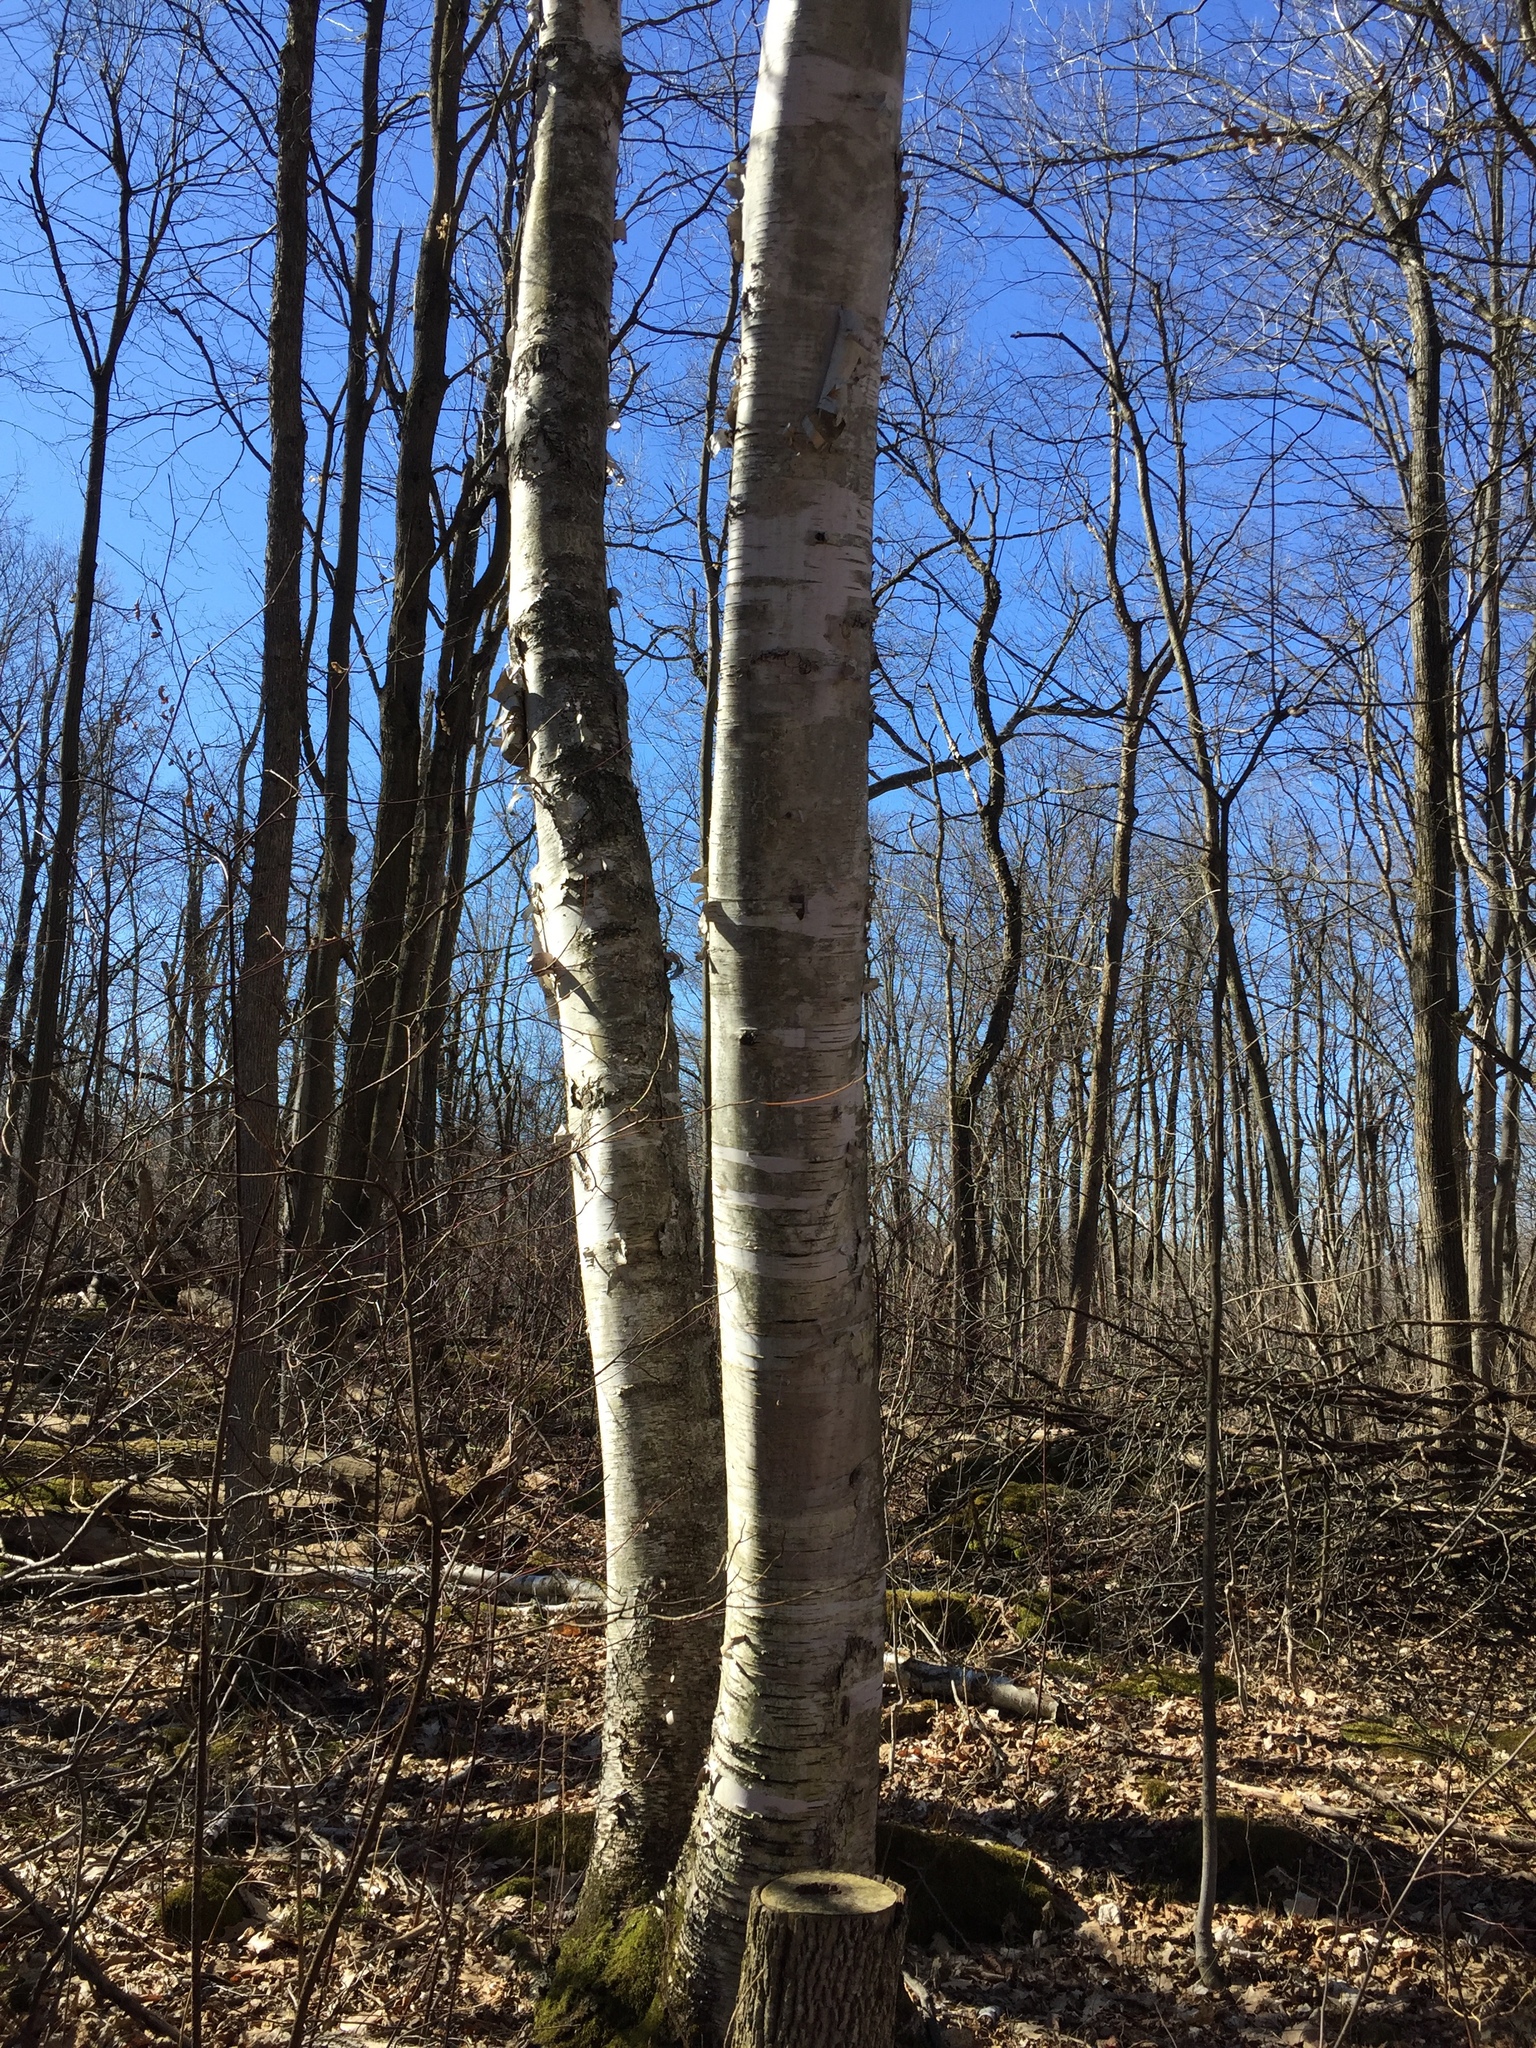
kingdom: Plantae
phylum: Tracheophyta
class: Magnoliopsida
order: Fagales
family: Betulaceae
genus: Betula
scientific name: Betula papyrifera
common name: Paper birch
